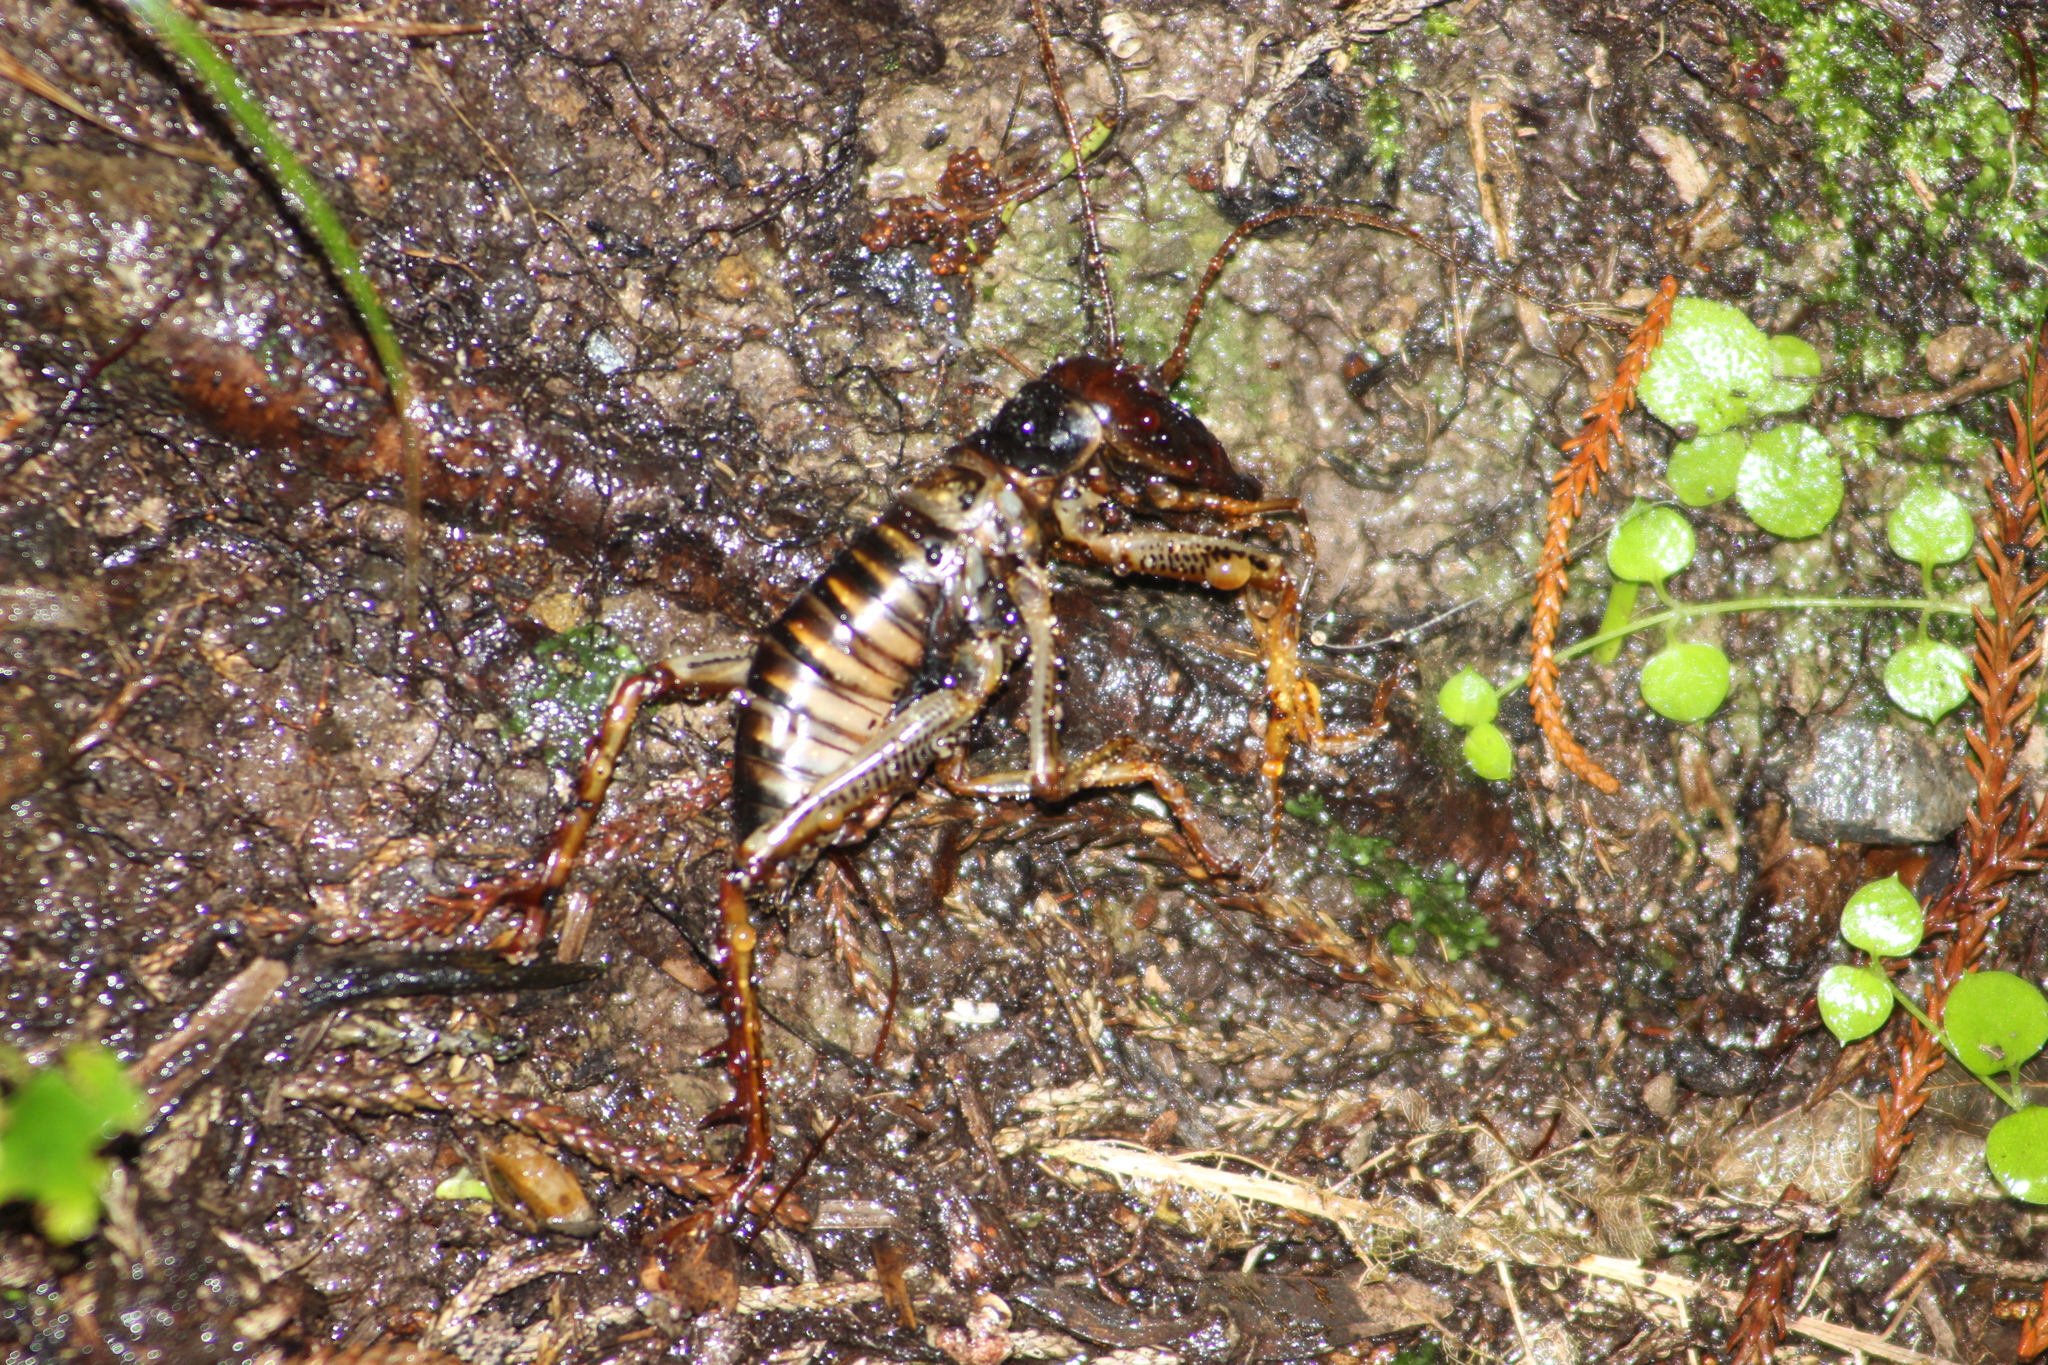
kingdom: Animalia
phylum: Arthropoda
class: Insecta
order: Orthoptera
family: Anostostomatidae
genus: Hemideina
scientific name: Hemideina crassidens
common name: Wellington tree weta
